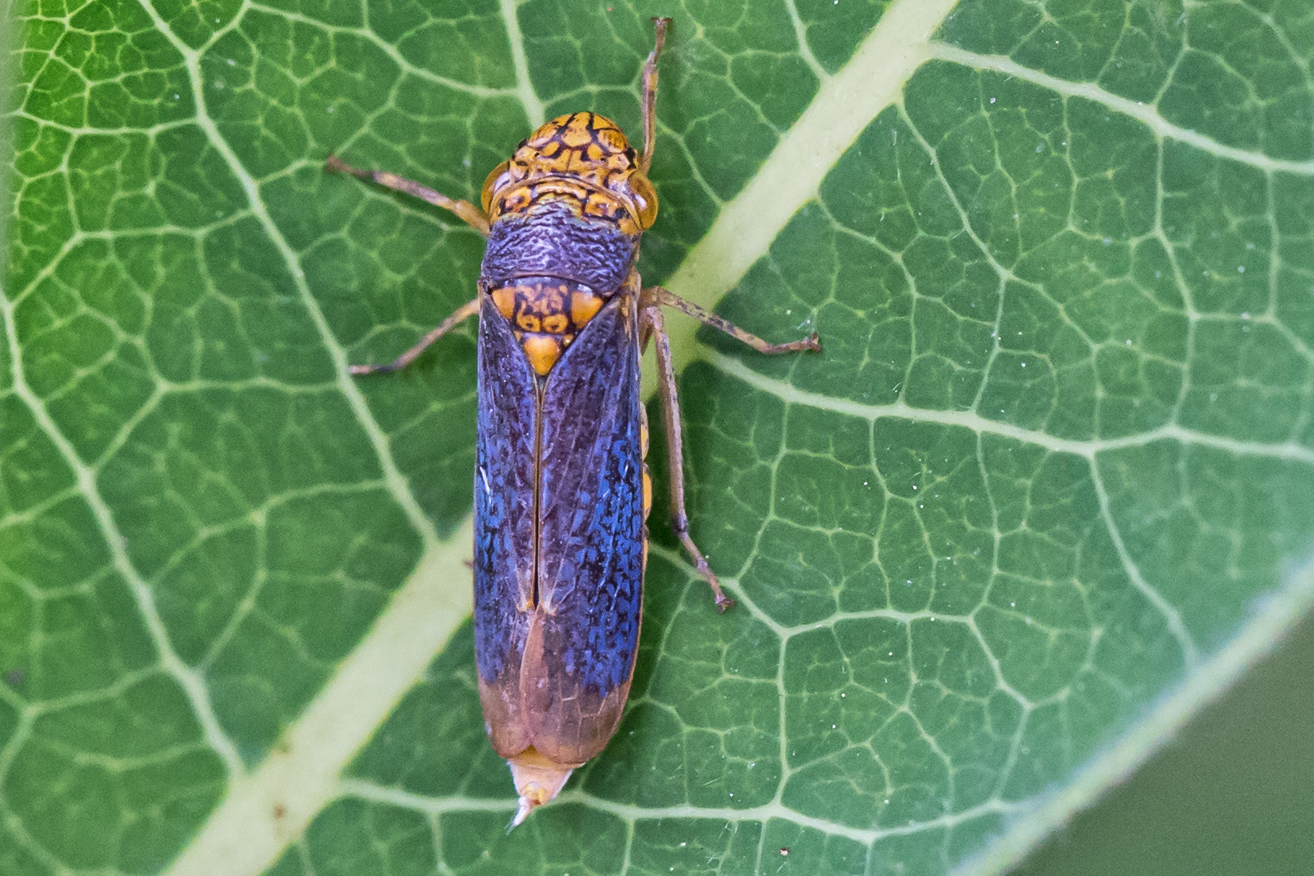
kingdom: Animalia
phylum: Arthropoda
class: Insecta
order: Hemiptera
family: Cicadellidae
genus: Oncometopia
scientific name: Oncometopia orbona
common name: Broad-headed sharpshooter
